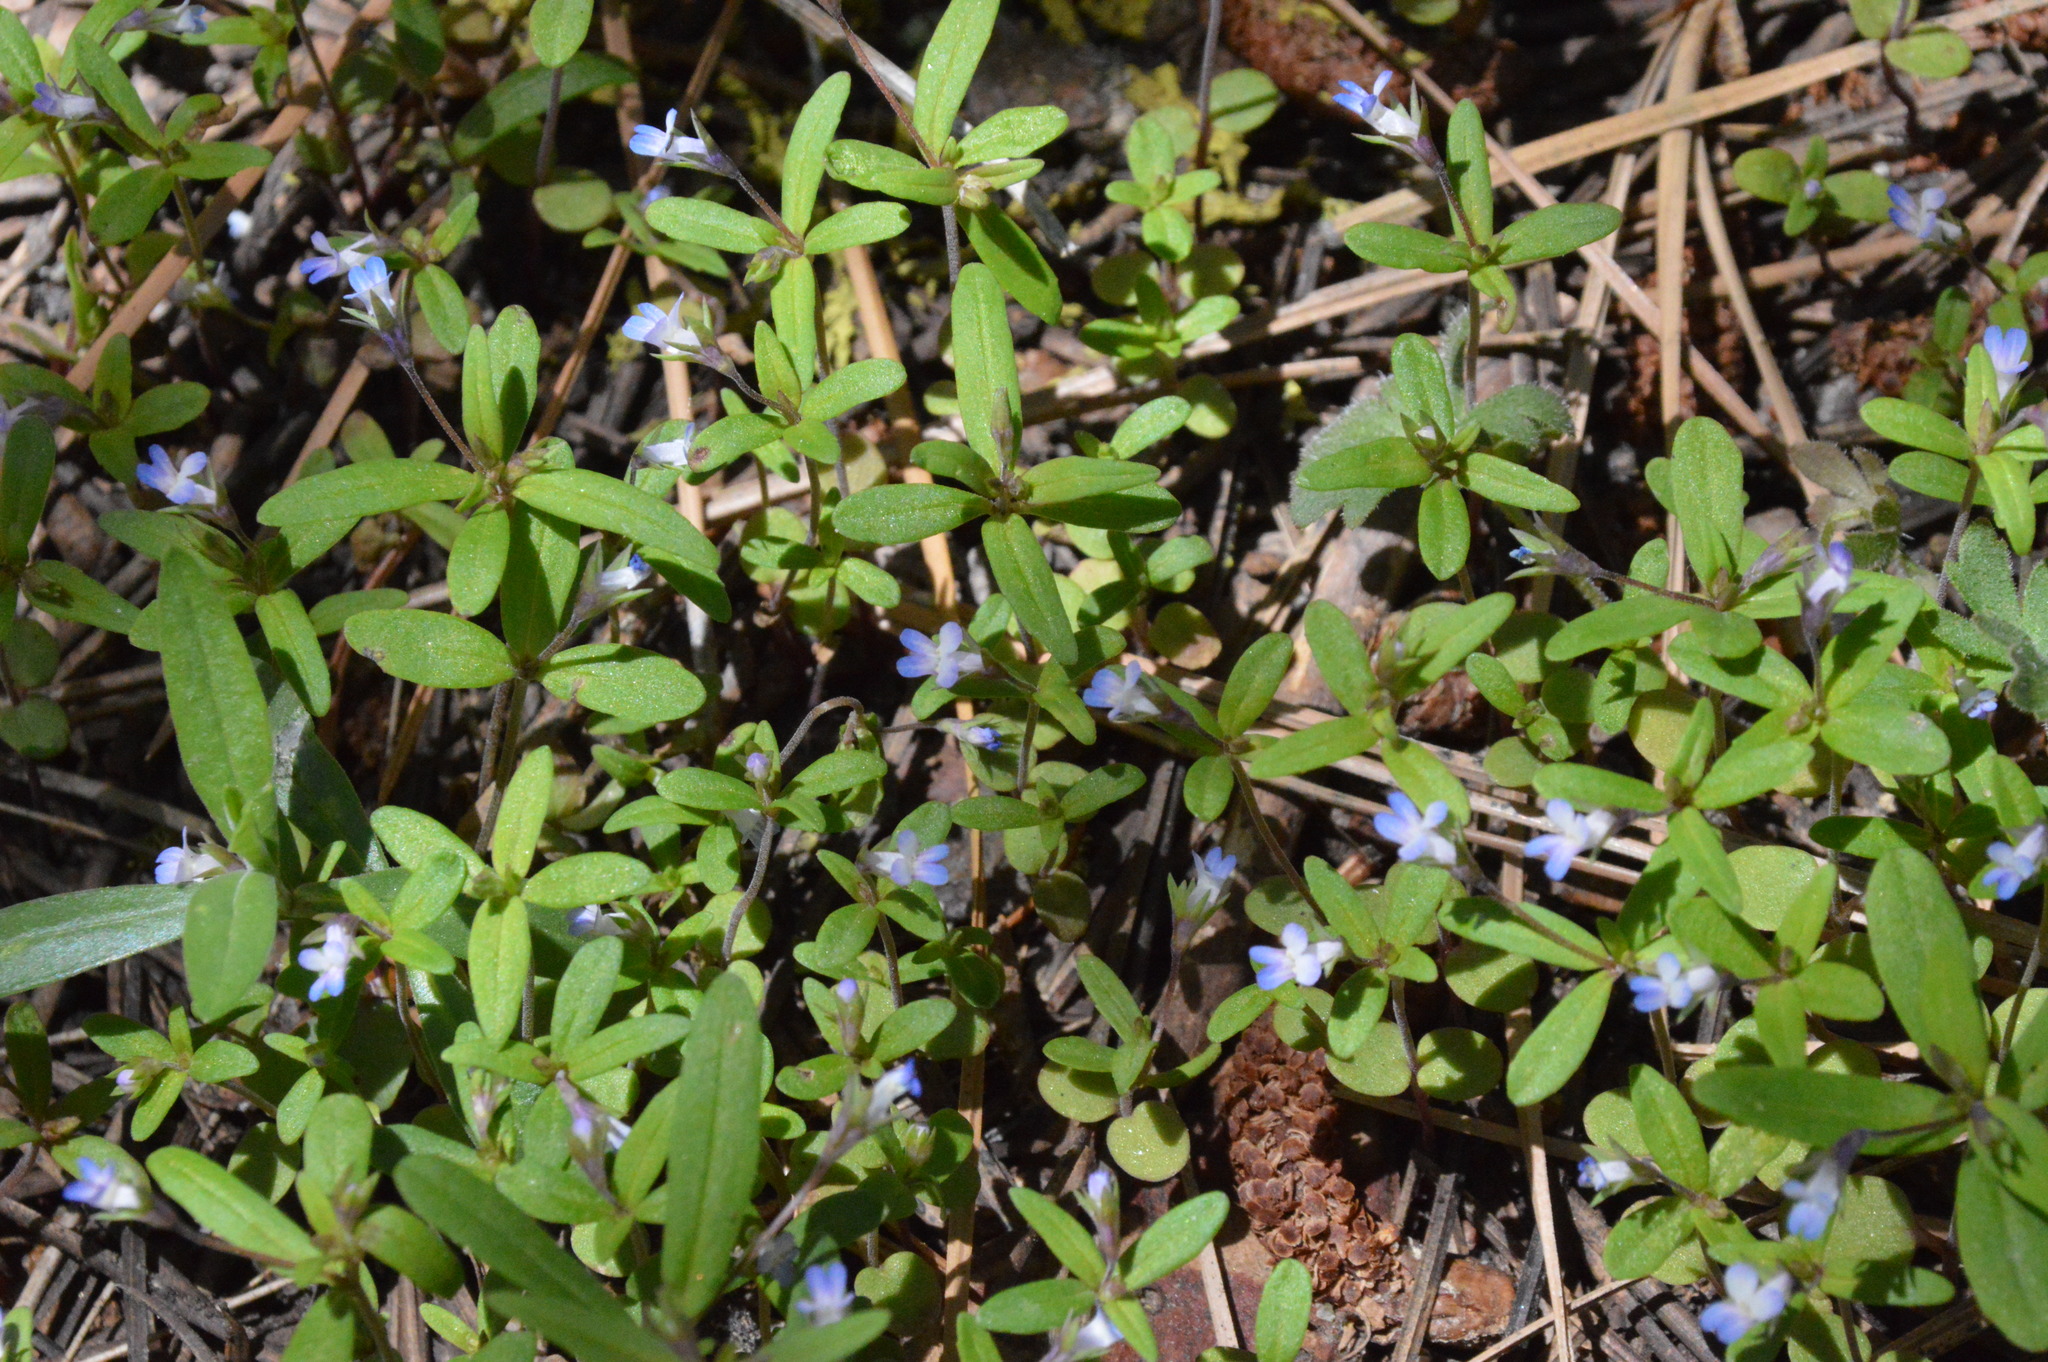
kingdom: Plantae
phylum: Tracheophyta
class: Magnoliopsida
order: Lamiales
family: Plantaginaceae
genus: Collinsia
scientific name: Collinsia parviflora
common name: Blue-lips
